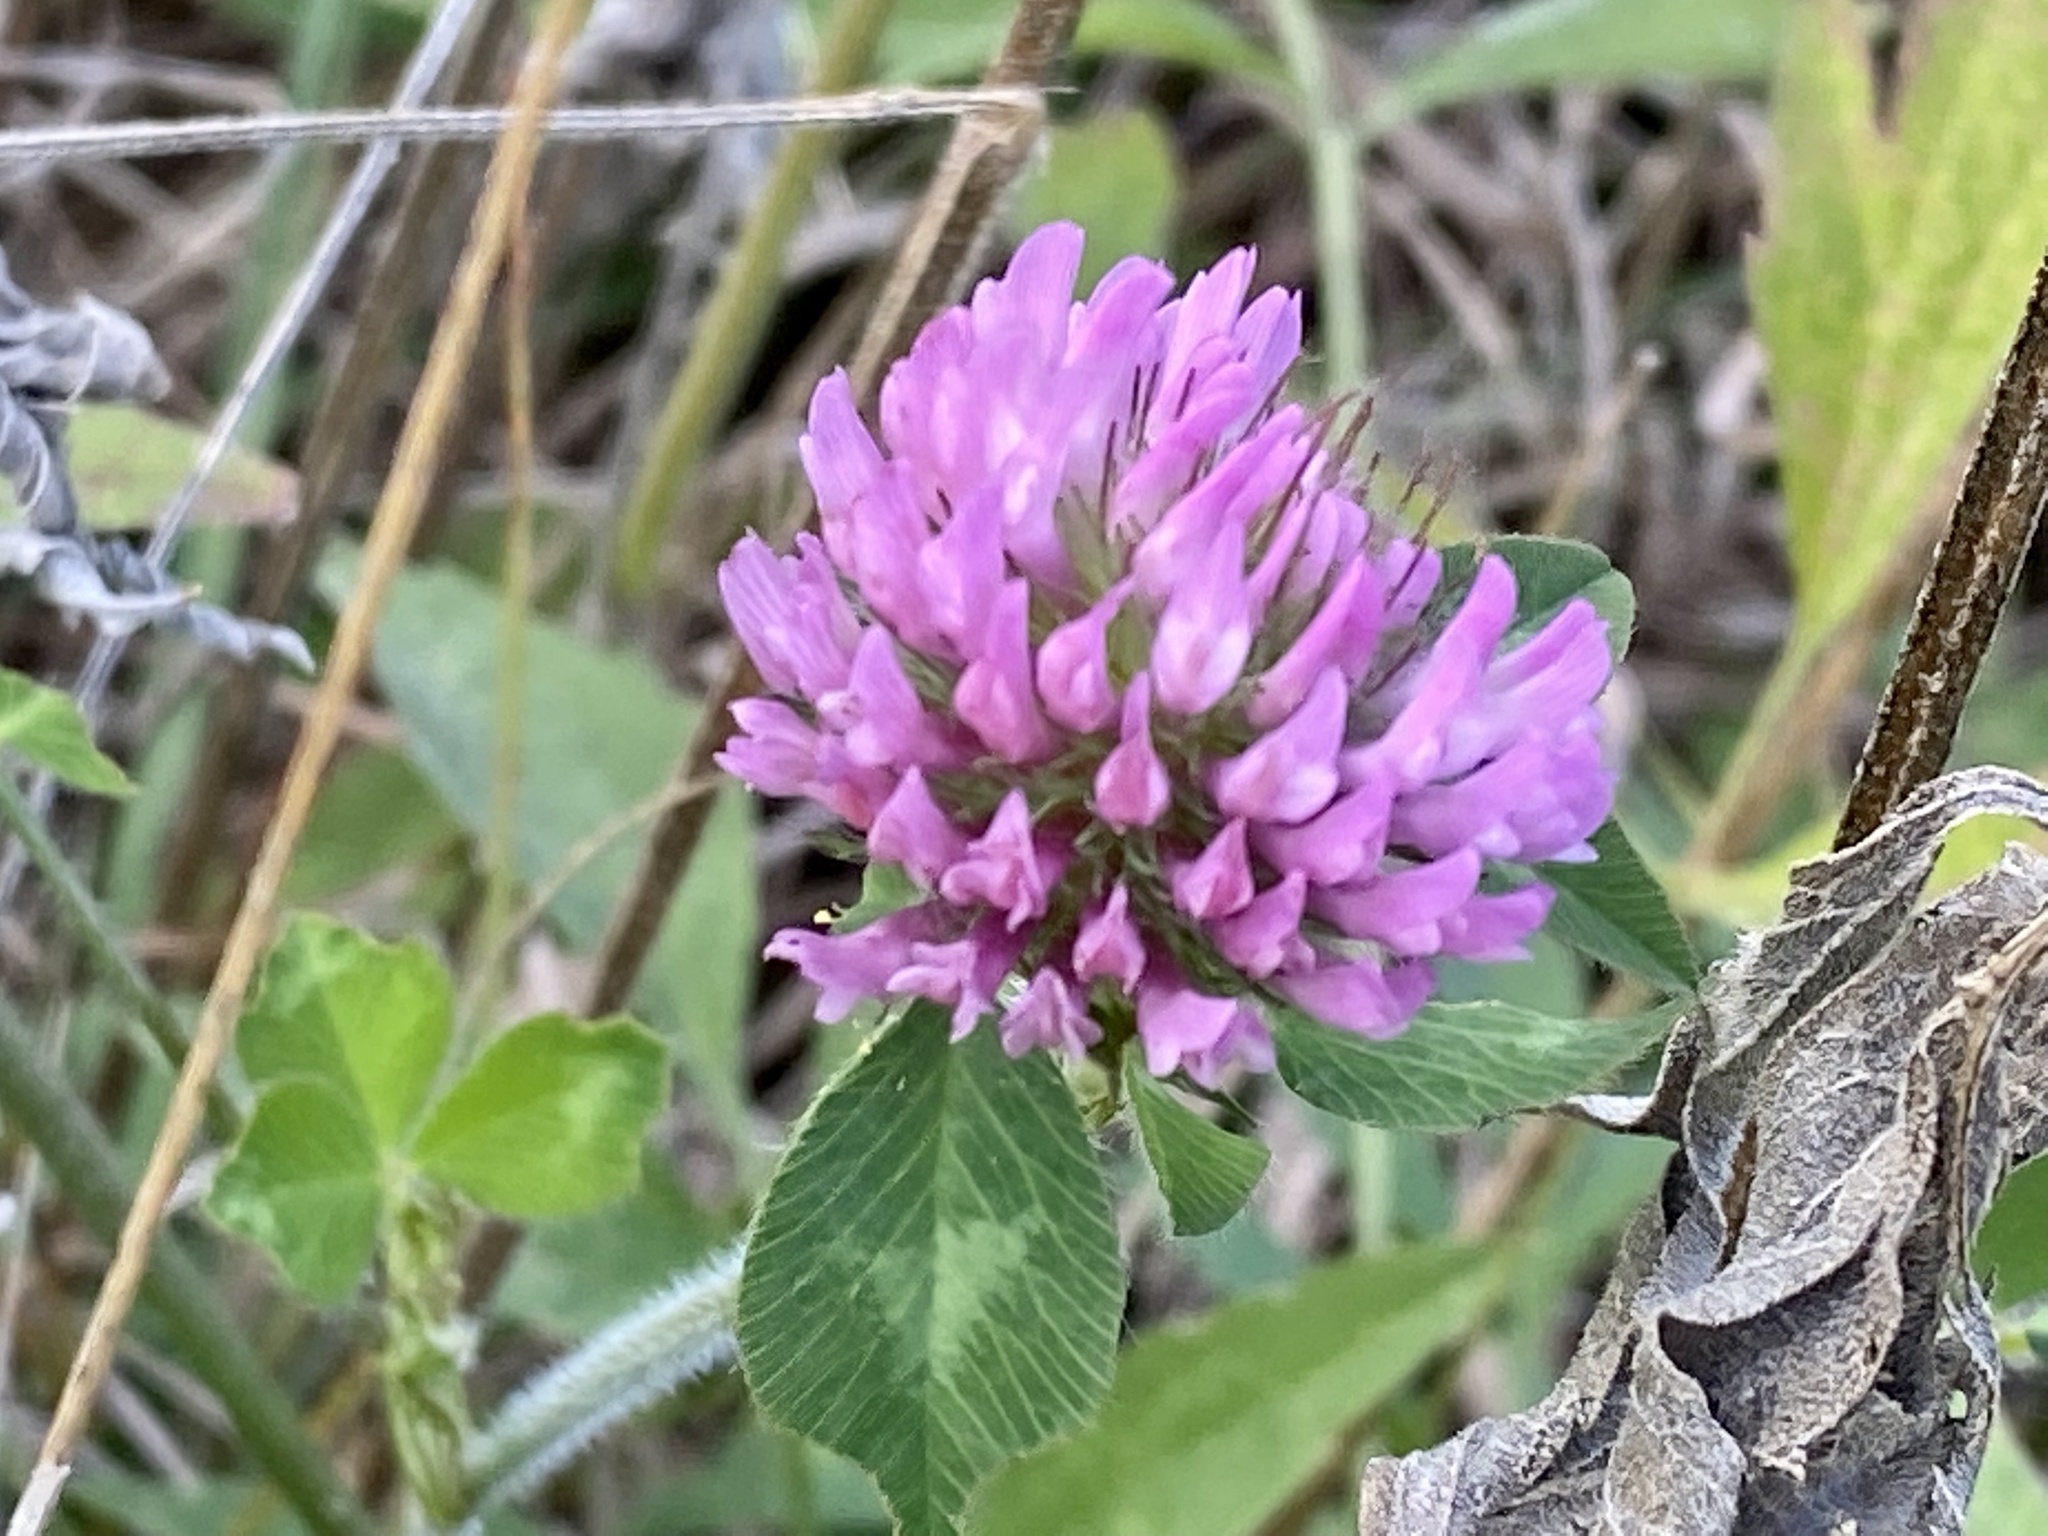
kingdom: Plantae
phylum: Tracheophyta
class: Magnoliopsida
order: Fabales
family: Fabaceae
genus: Trifolium
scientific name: Trifolium pratense
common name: Red clover
